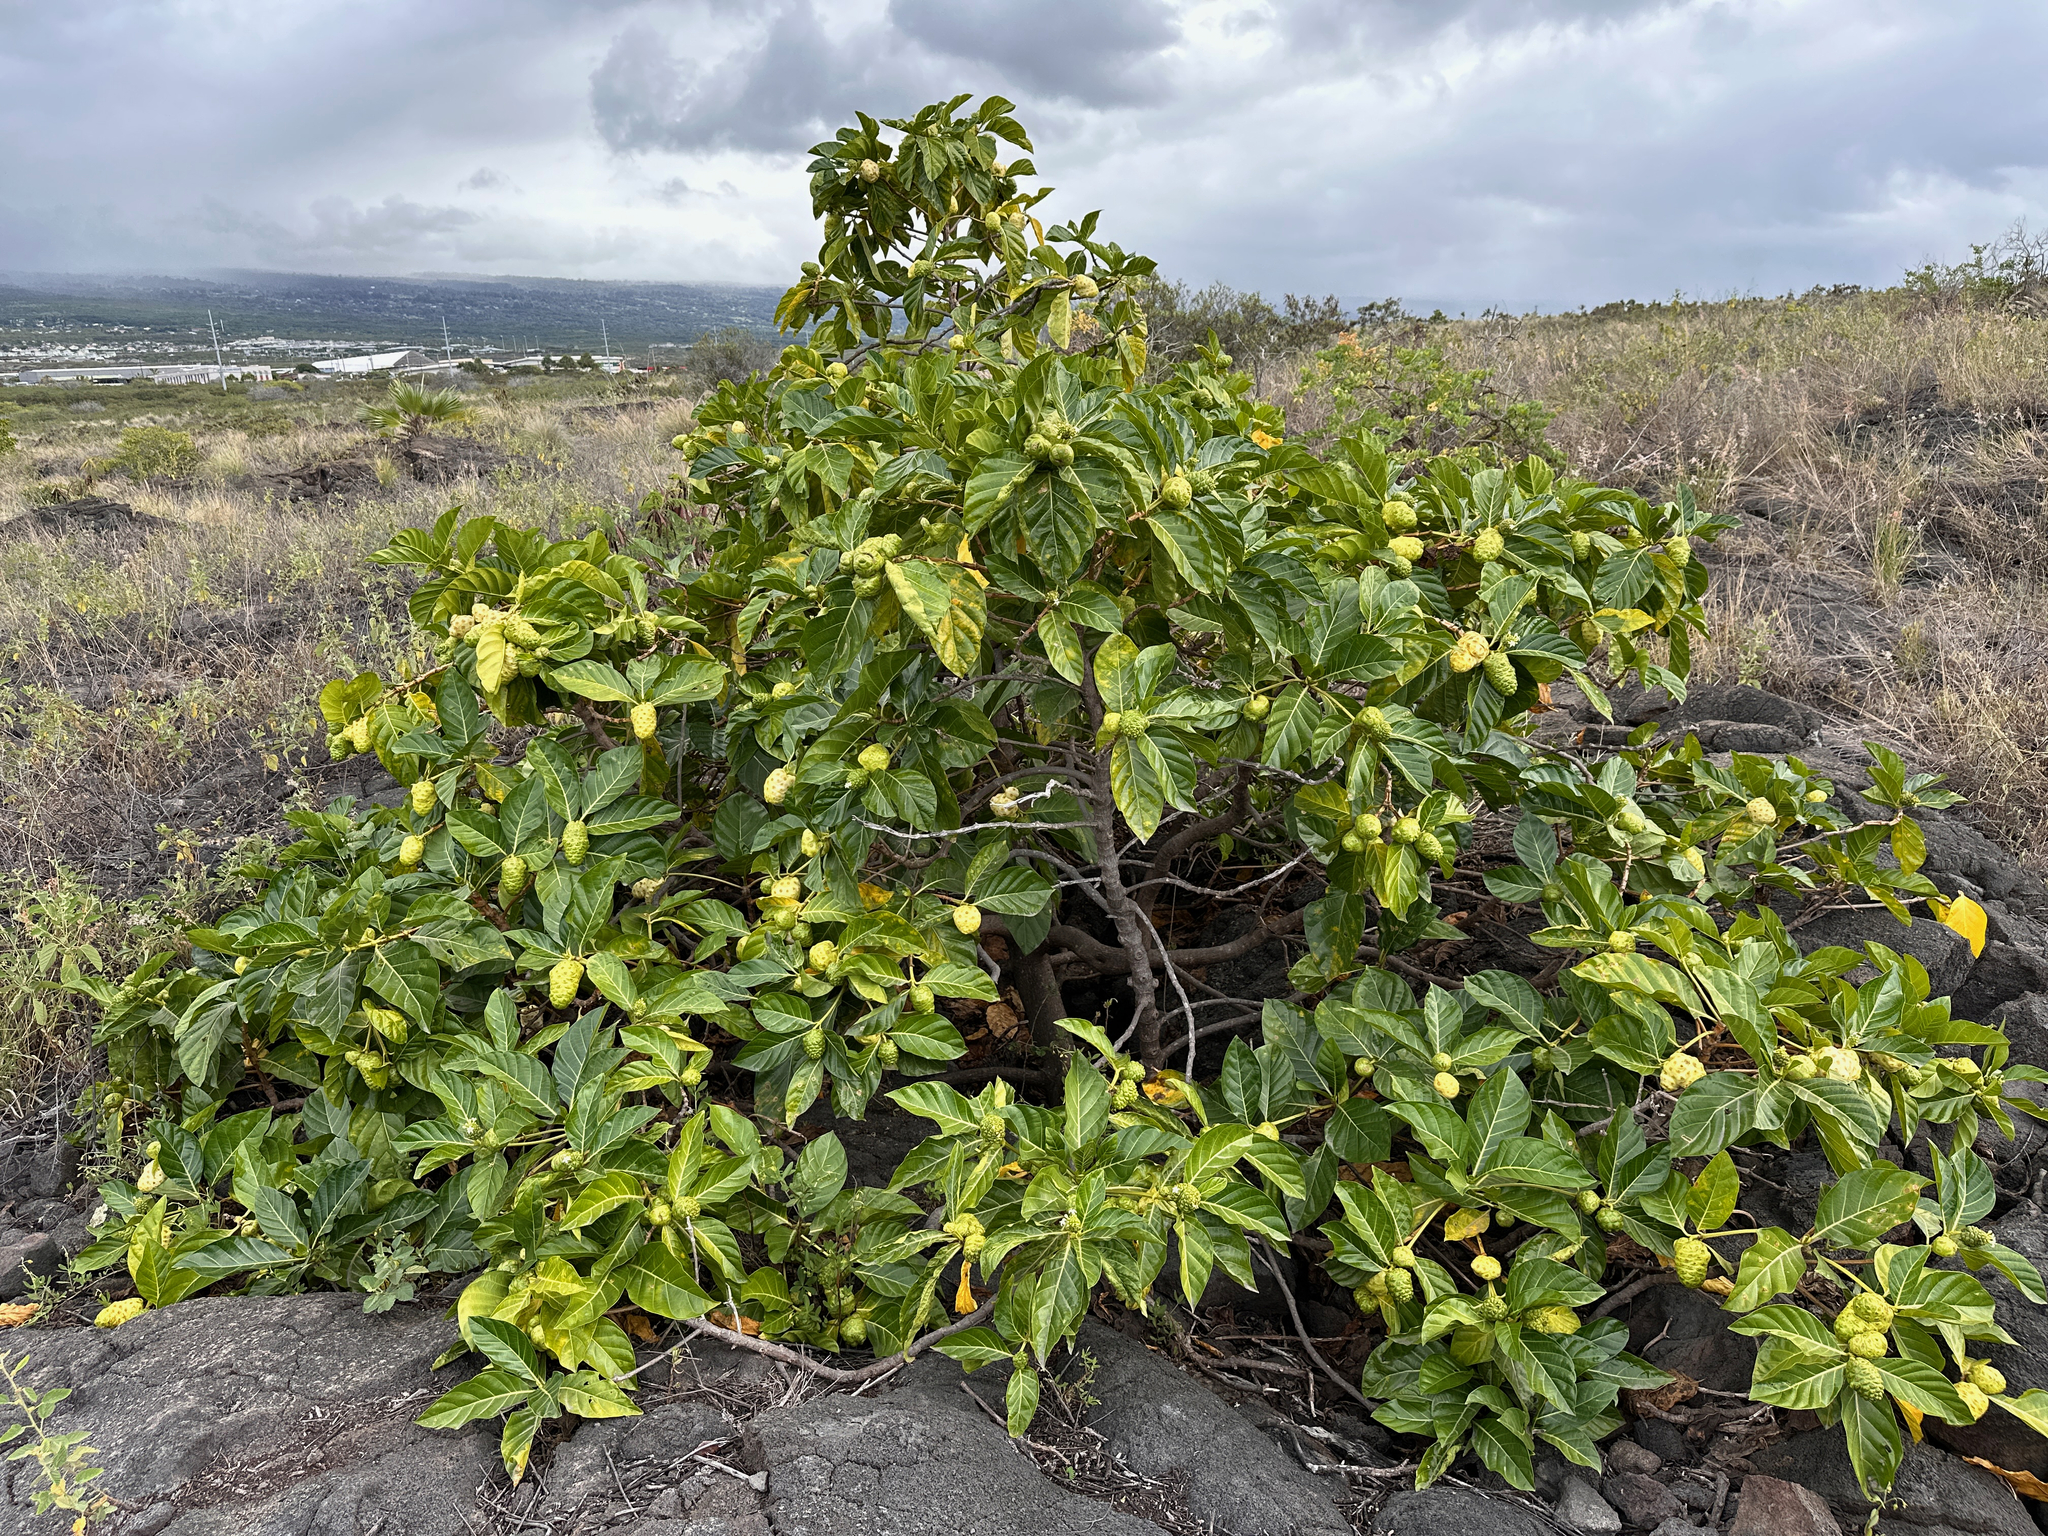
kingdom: Plantae
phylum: Tracheophyta
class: Magnoliopsida
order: Gentianales
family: Rubiaceae
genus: Morinda
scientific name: Morinda citrifolia
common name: Indian-mulberry
